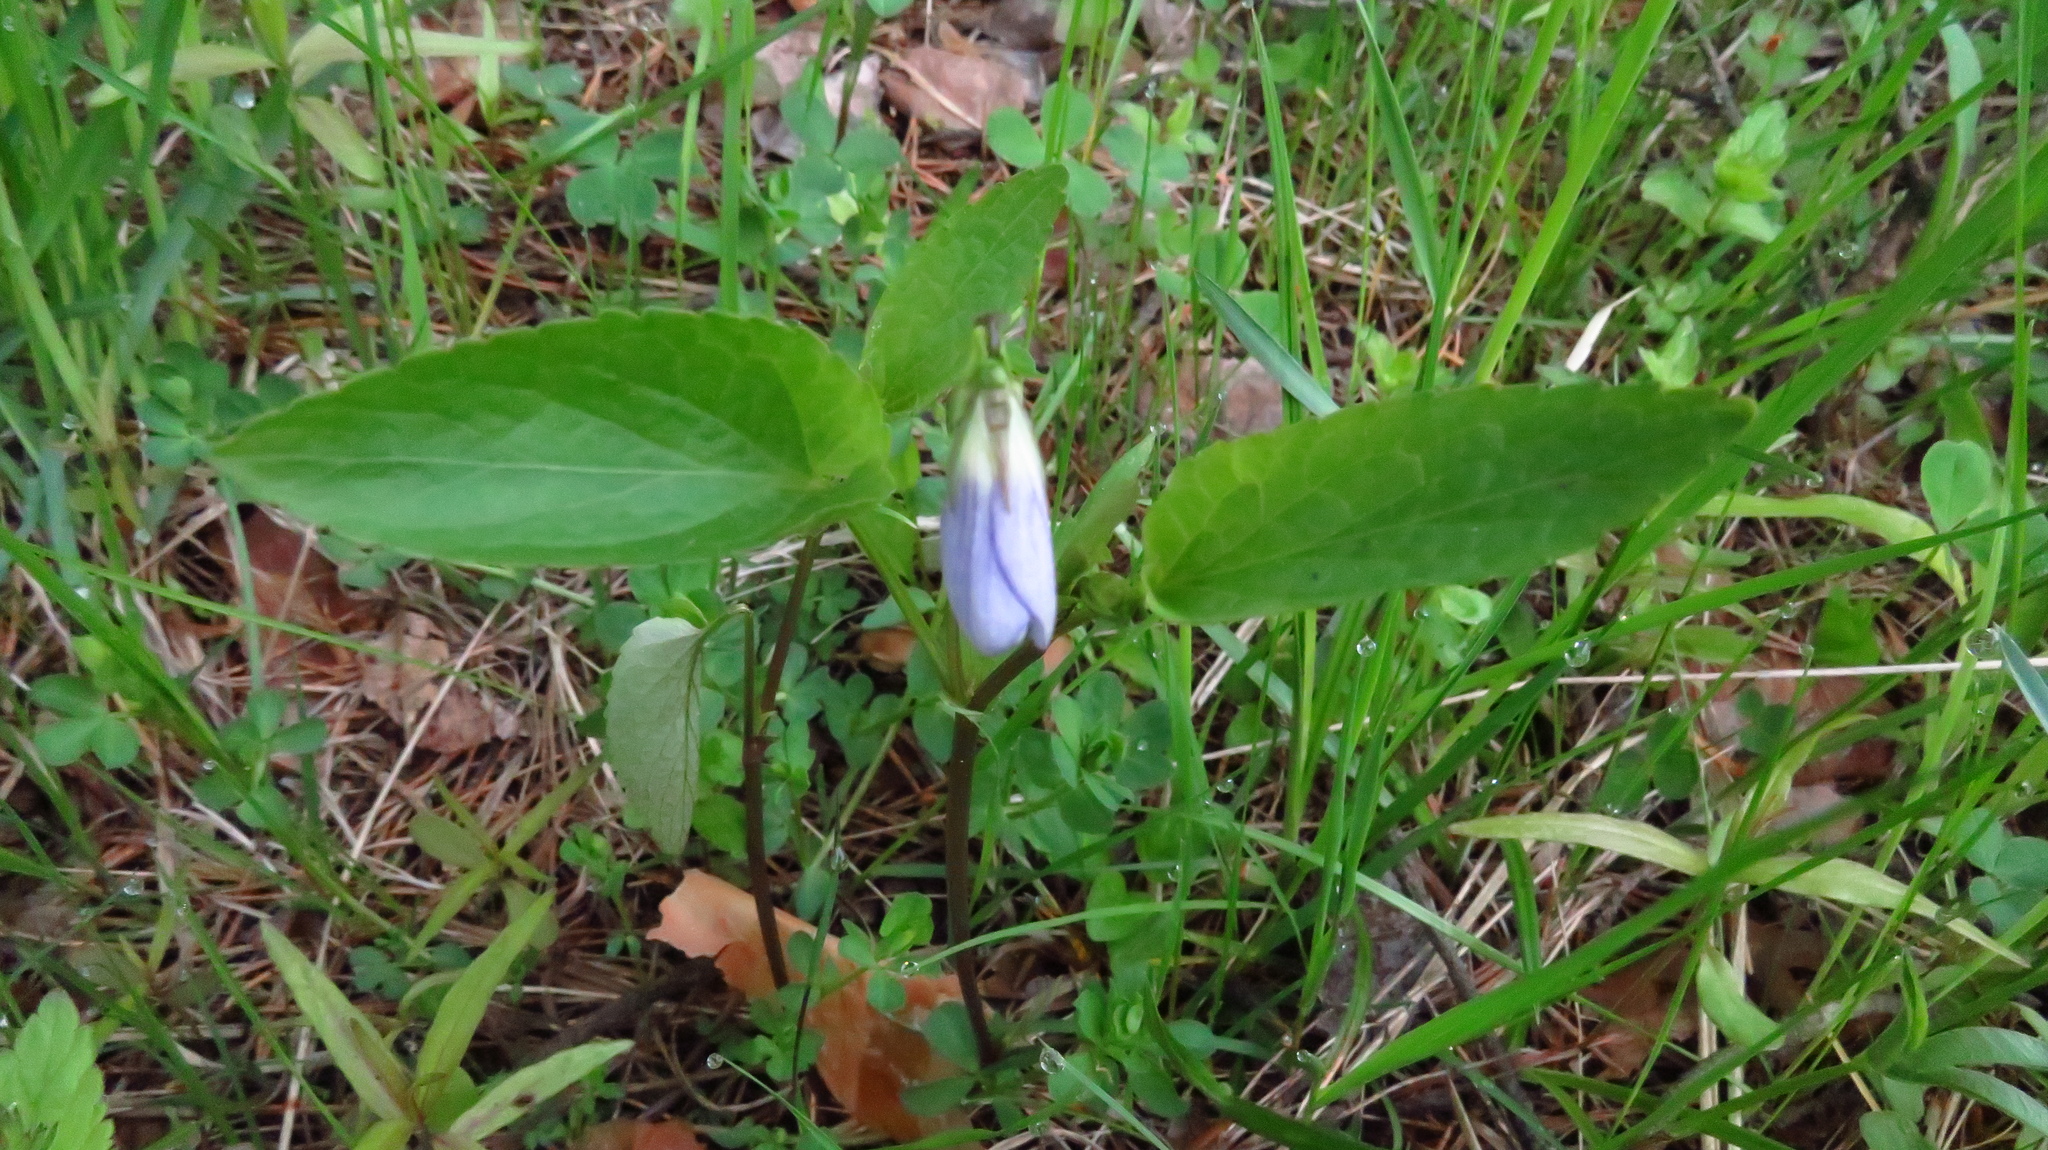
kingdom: Plantae
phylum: Tracheophyta
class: Magnoliopsida
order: Malpighiales
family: Violaceae
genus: Viola
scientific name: Viola
